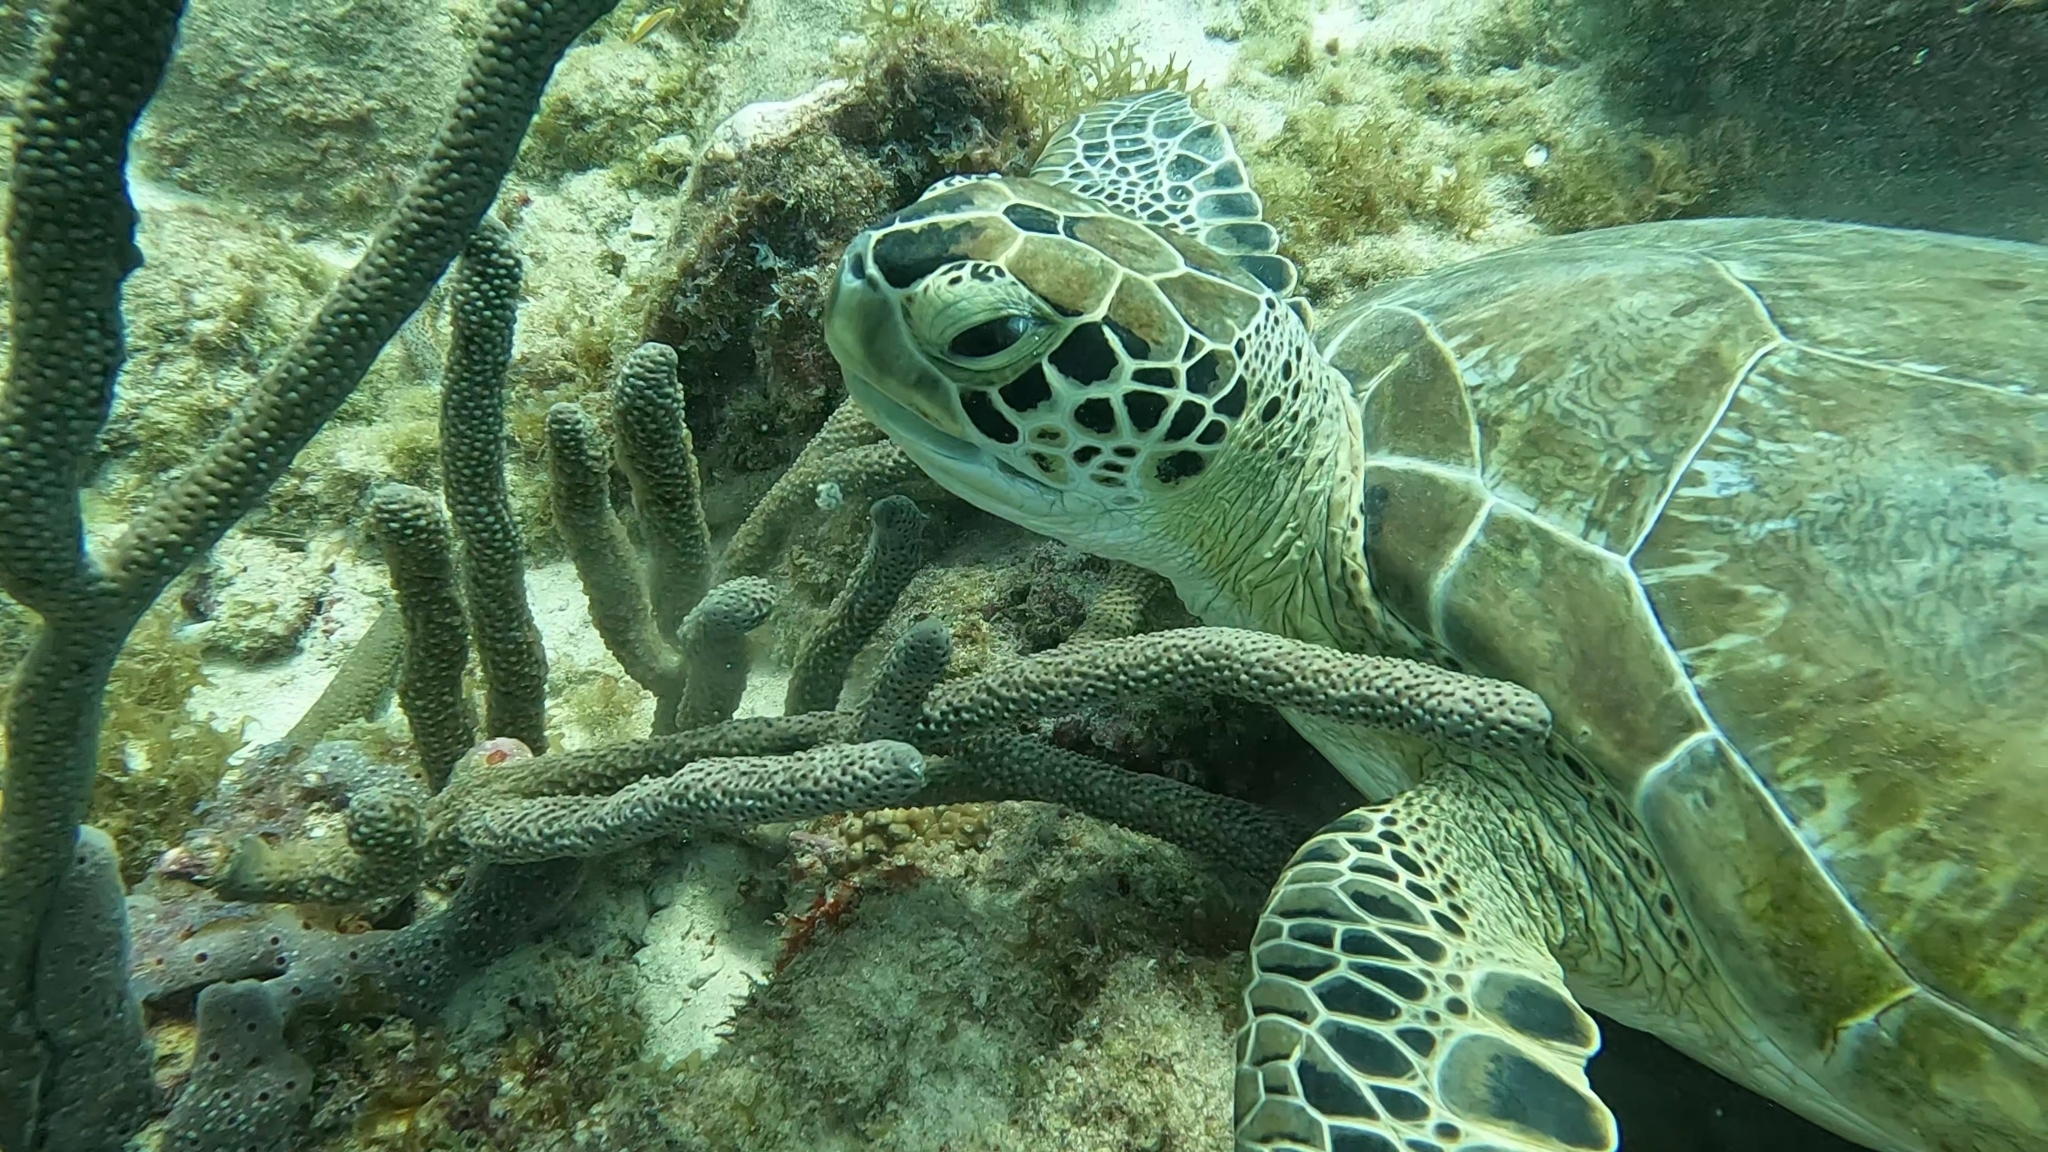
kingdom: Animalia
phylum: Chordata
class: Testudines
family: Cheloniidae
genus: Chelonia
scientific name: Chelonia mydas
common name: Green turtle
